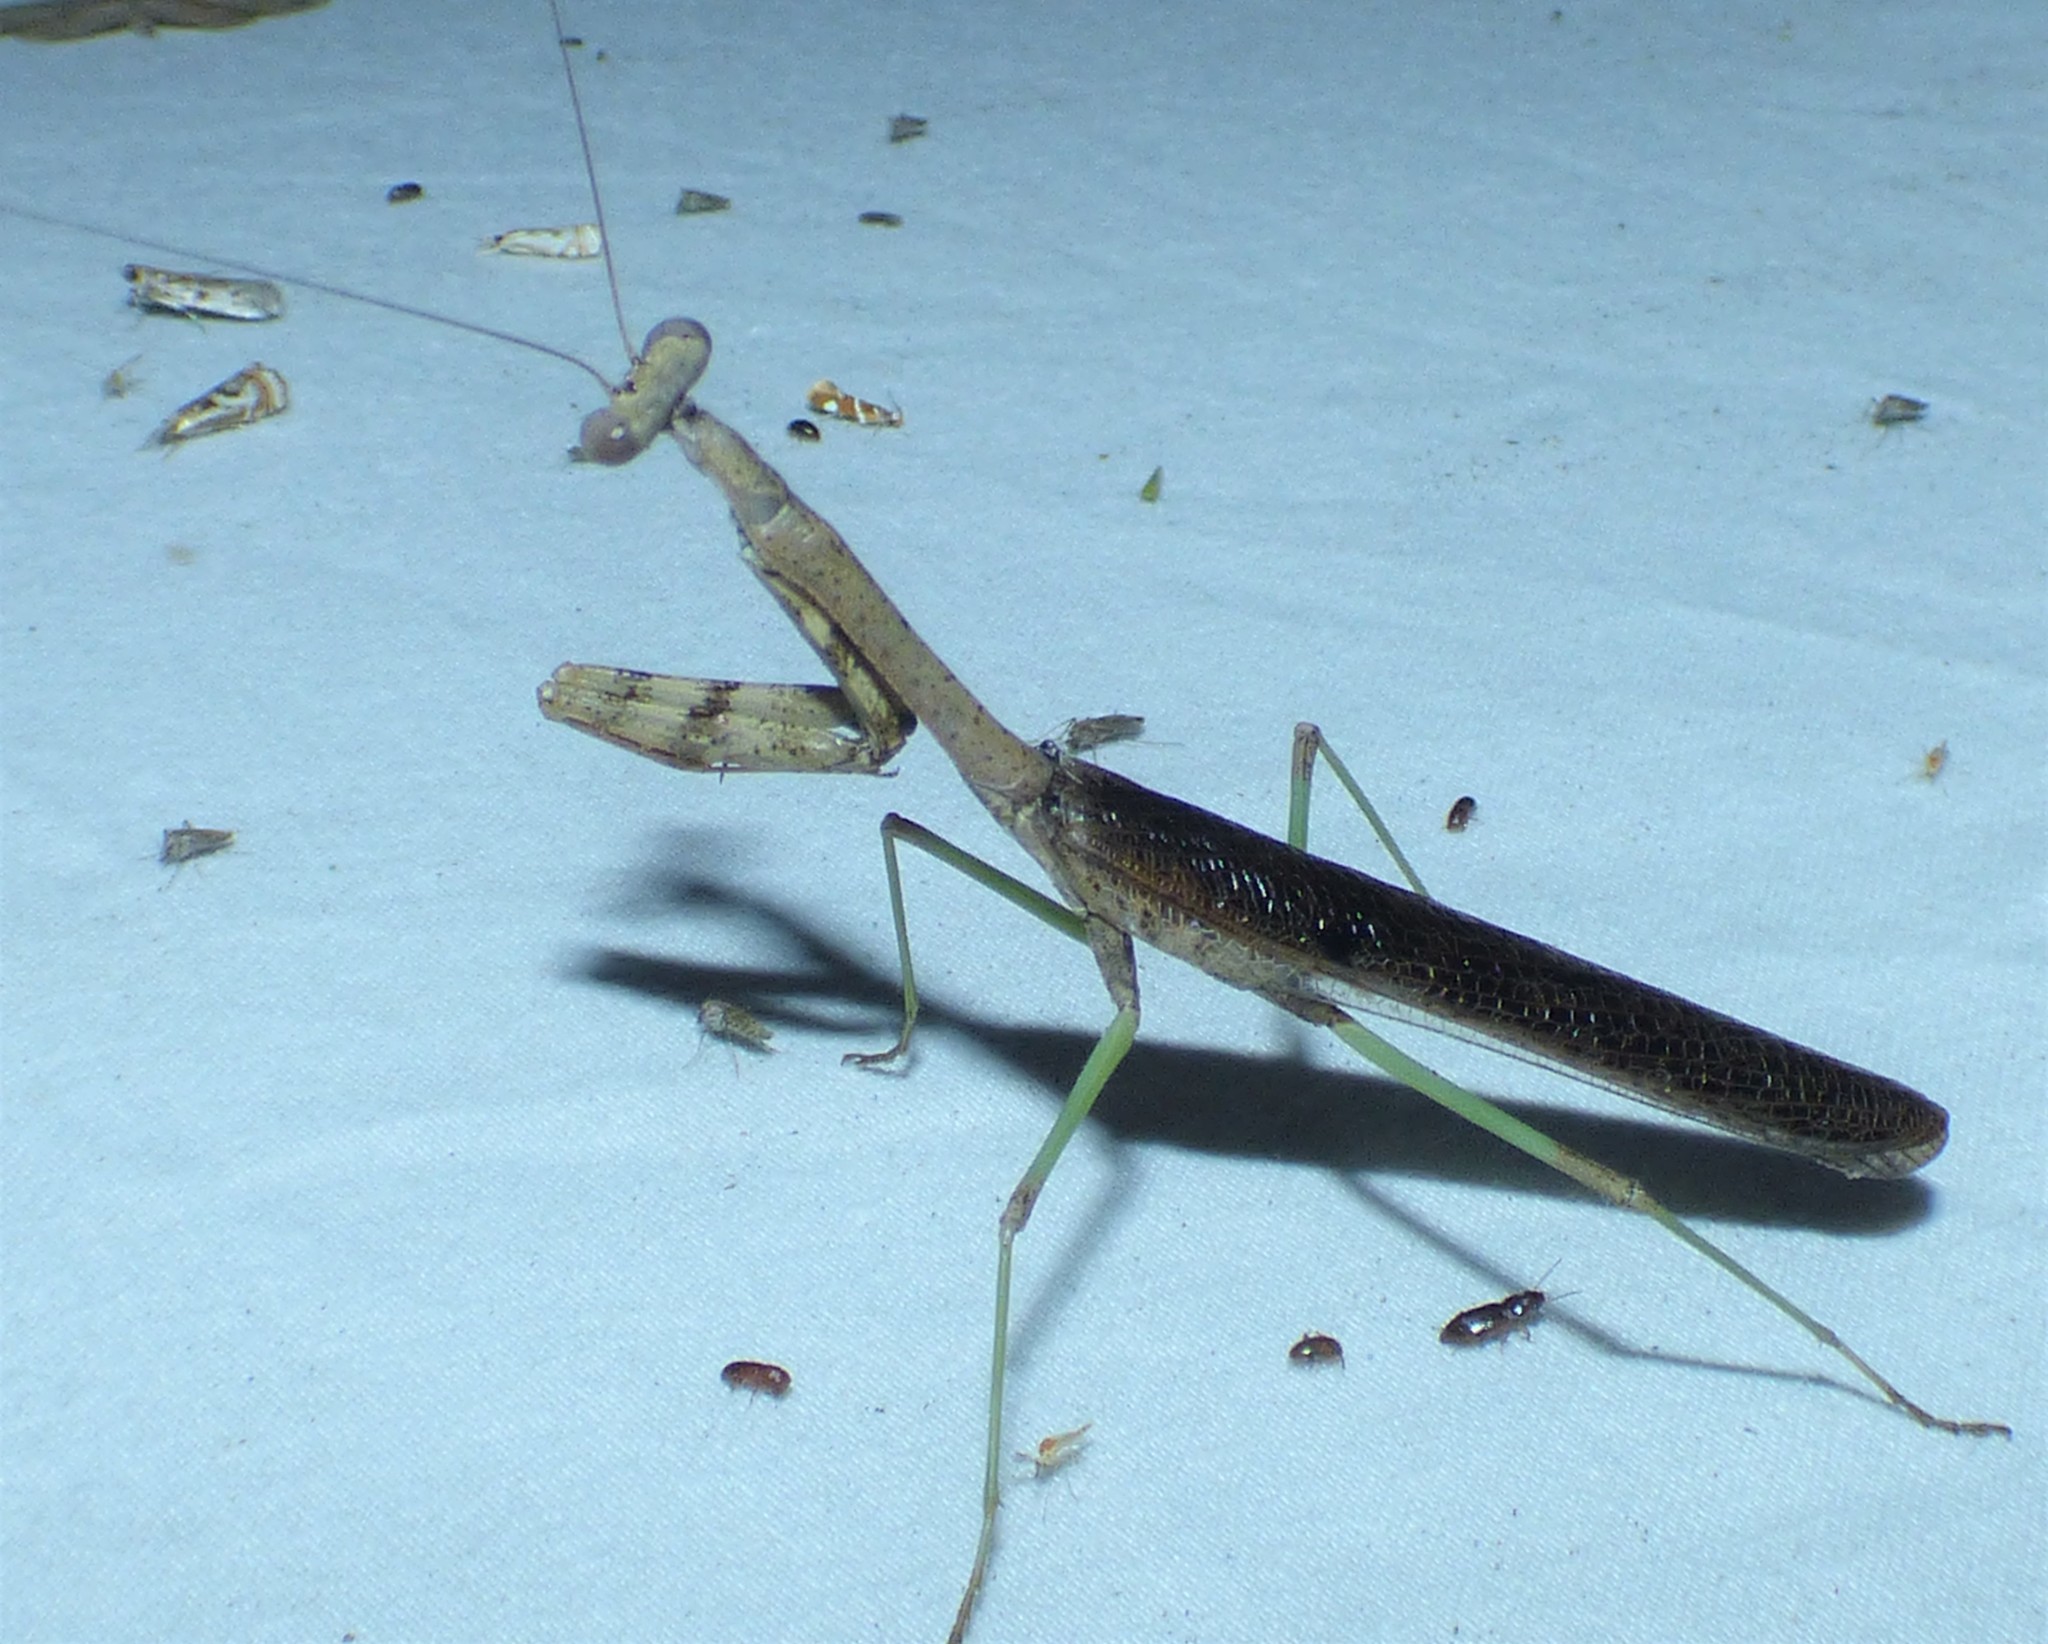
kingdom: Animalia
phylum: Arthropoda
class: Insecta
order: Mantodea
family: Mantidae
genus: Stagmomantis
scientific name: Stagmomantis carolina
